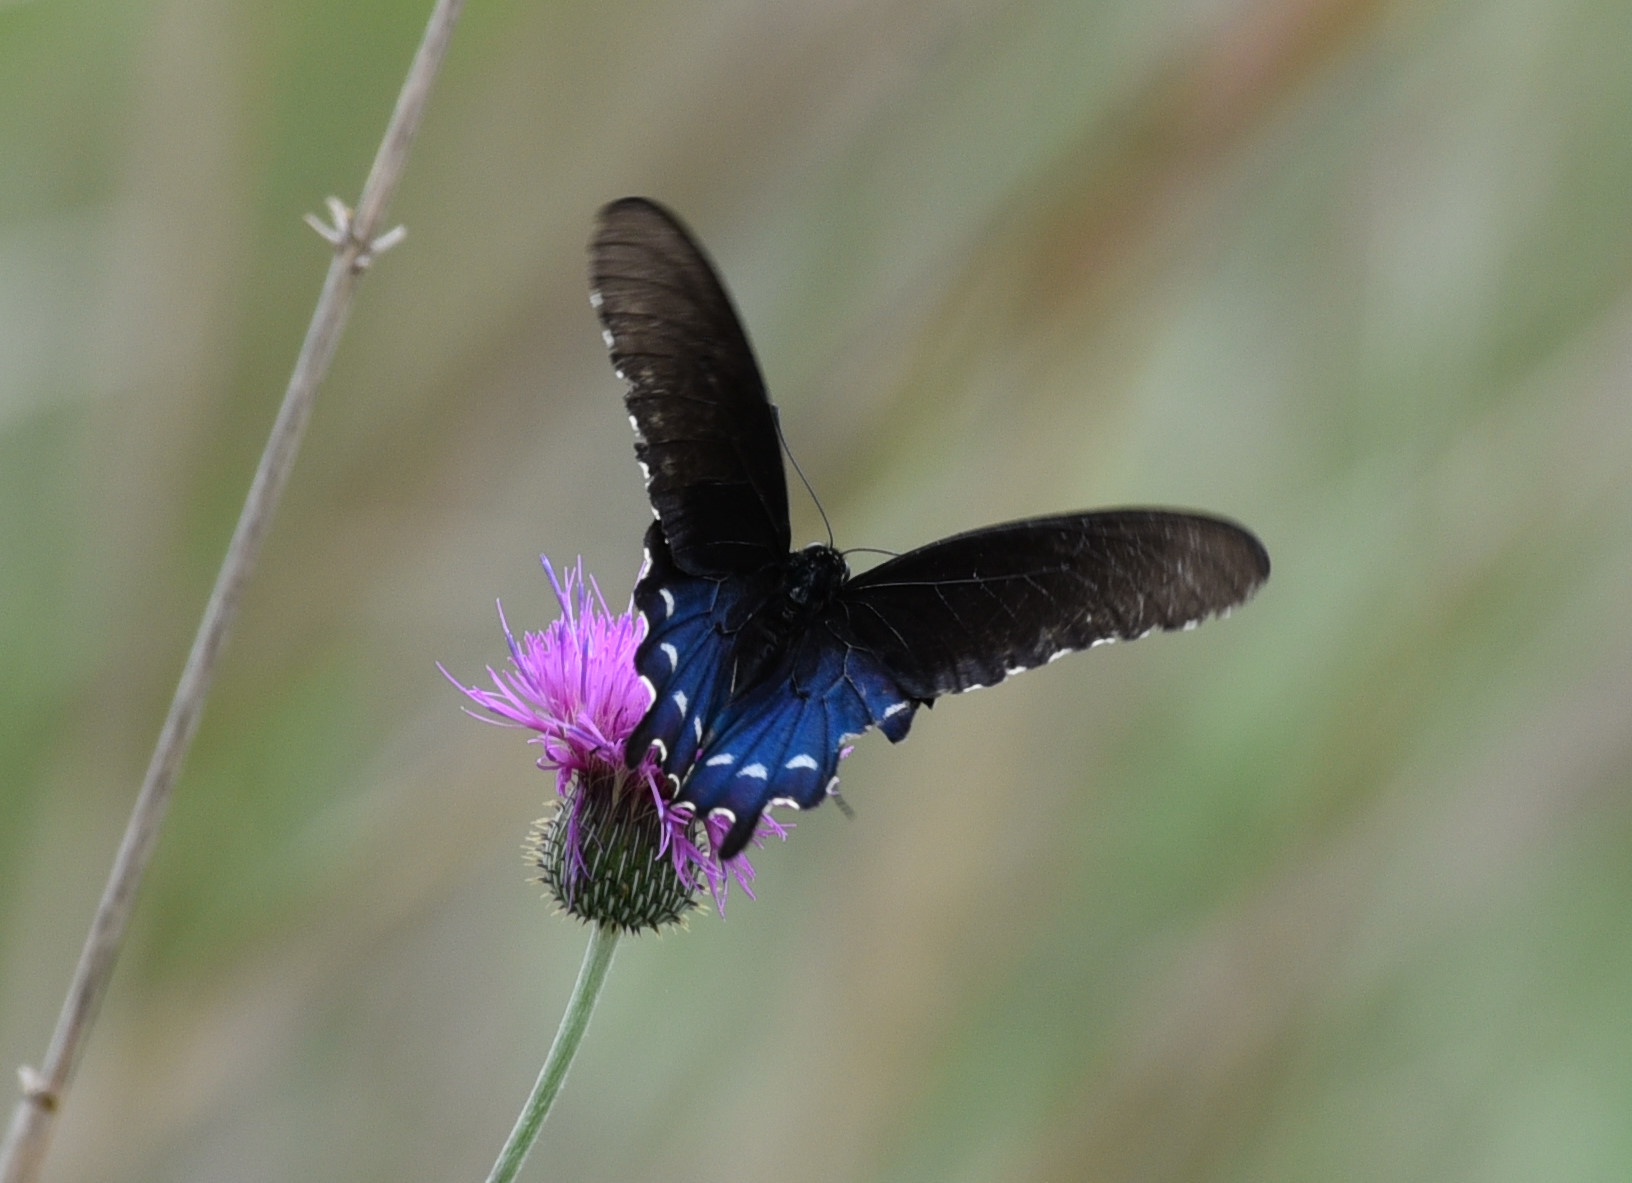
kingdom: Animalia
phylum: Arthropoda
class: Insecta
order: Lepidoptera
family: Papilionidae
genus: Battus
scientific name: Battus philenor
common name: Pipevine swallowtail
